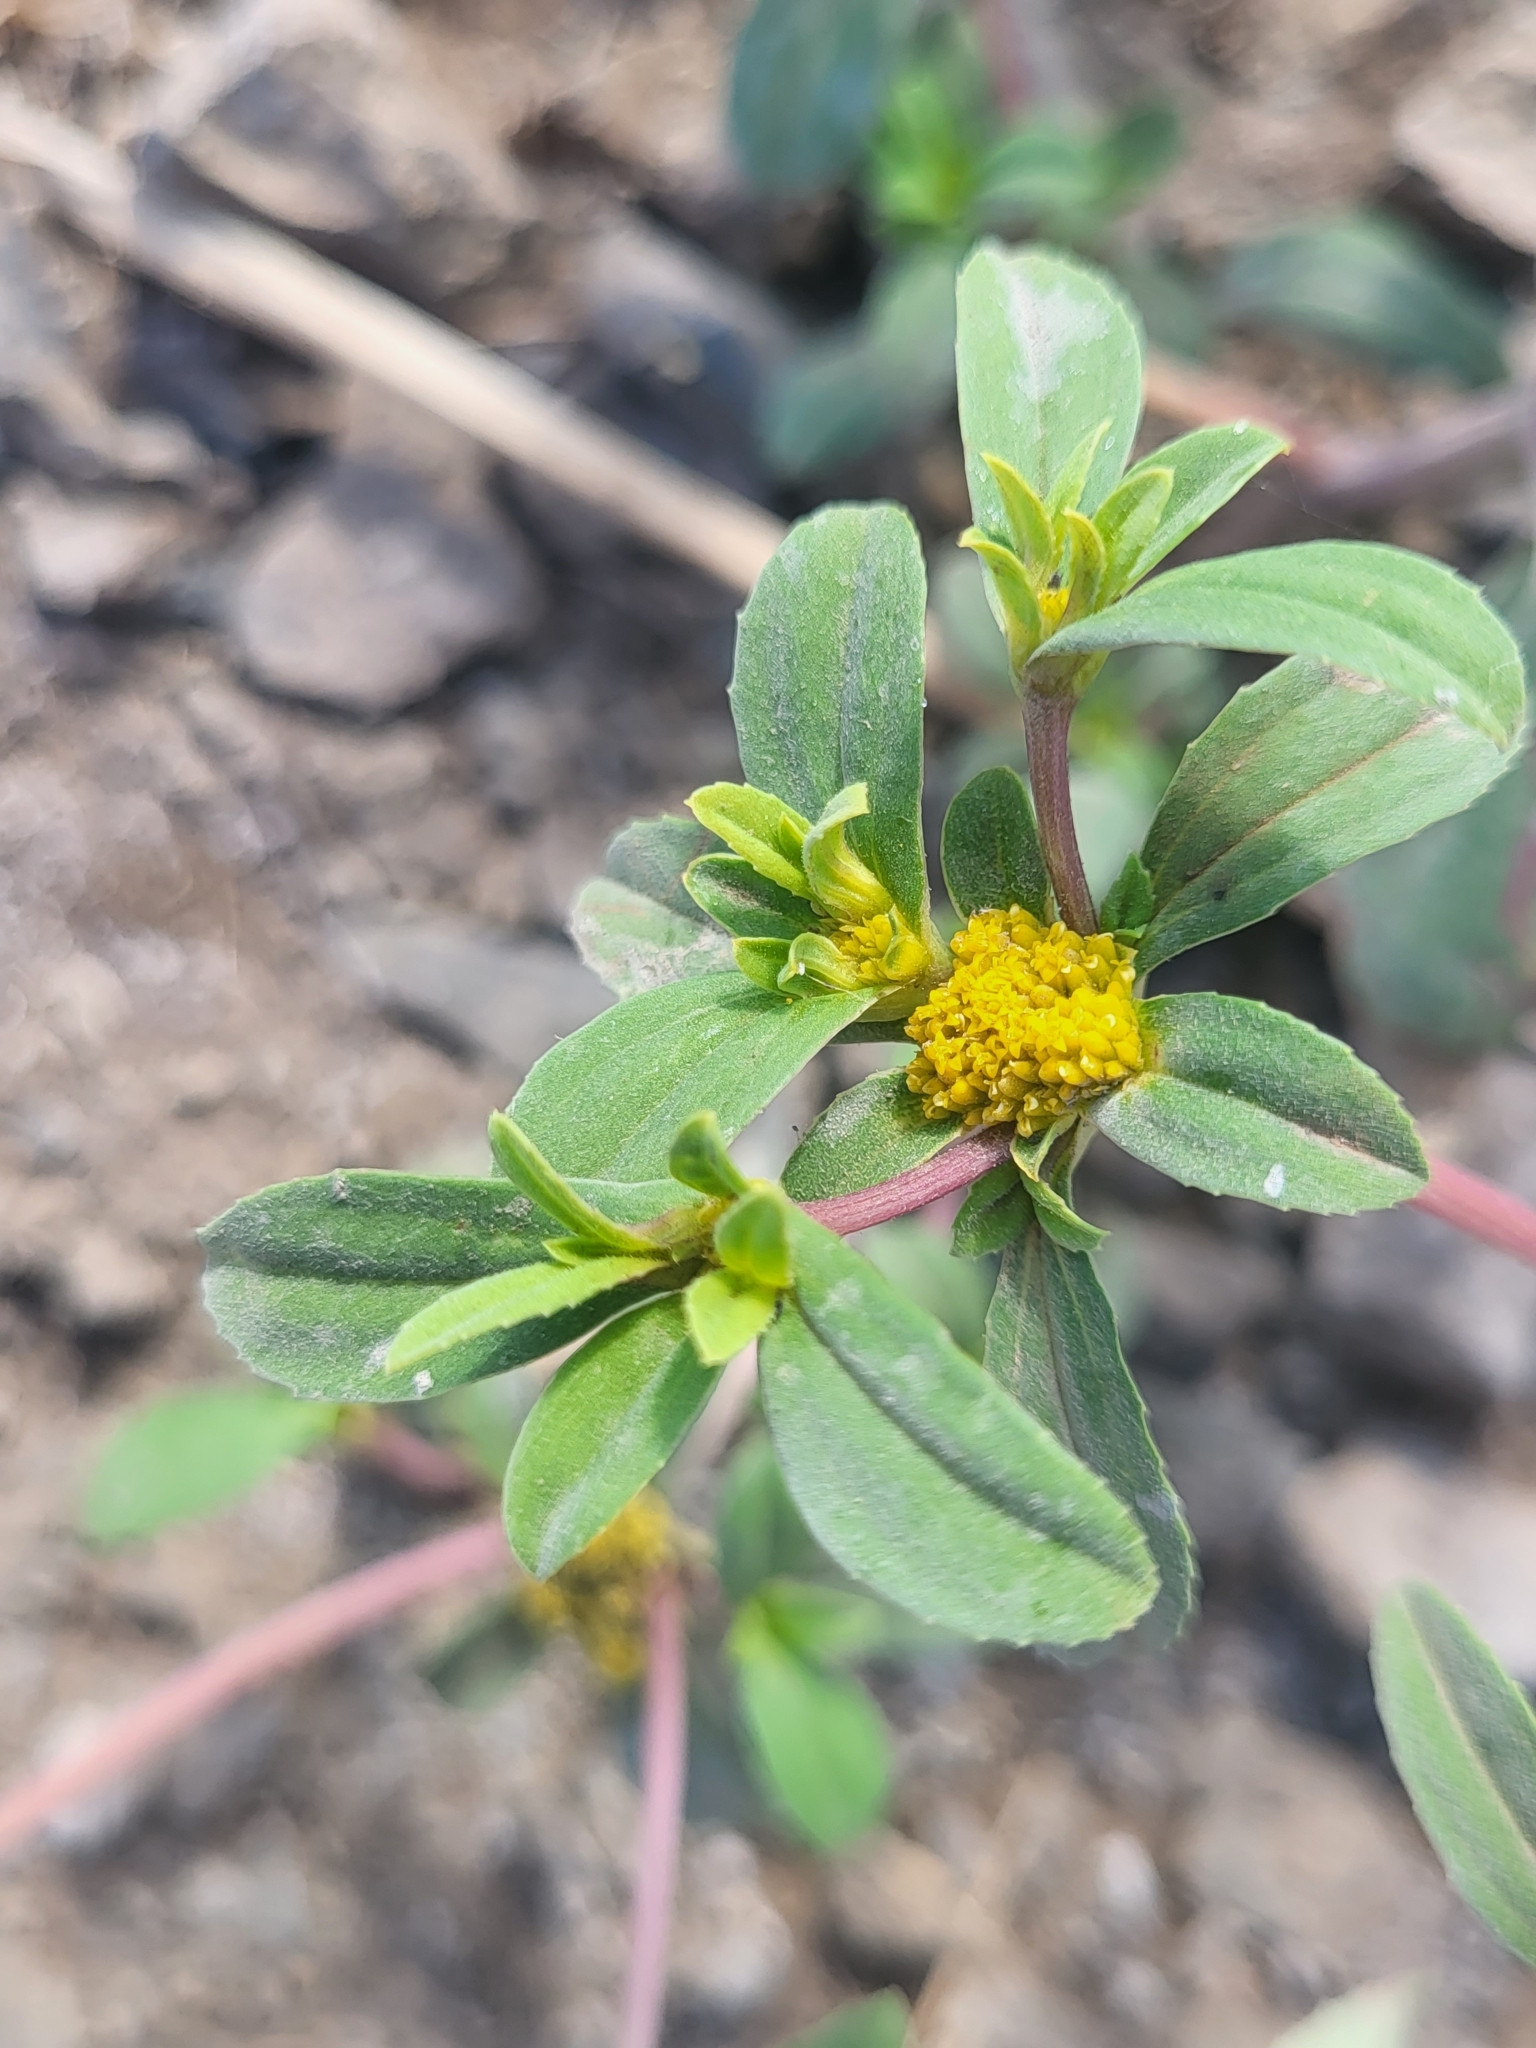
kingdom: Plantae
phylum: Tracheophyta
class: Magnoliopsida
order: Asterales
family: Asteraceae
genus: Flaveria
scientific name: Flaveria trinervia
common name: Clustered yellowtops
